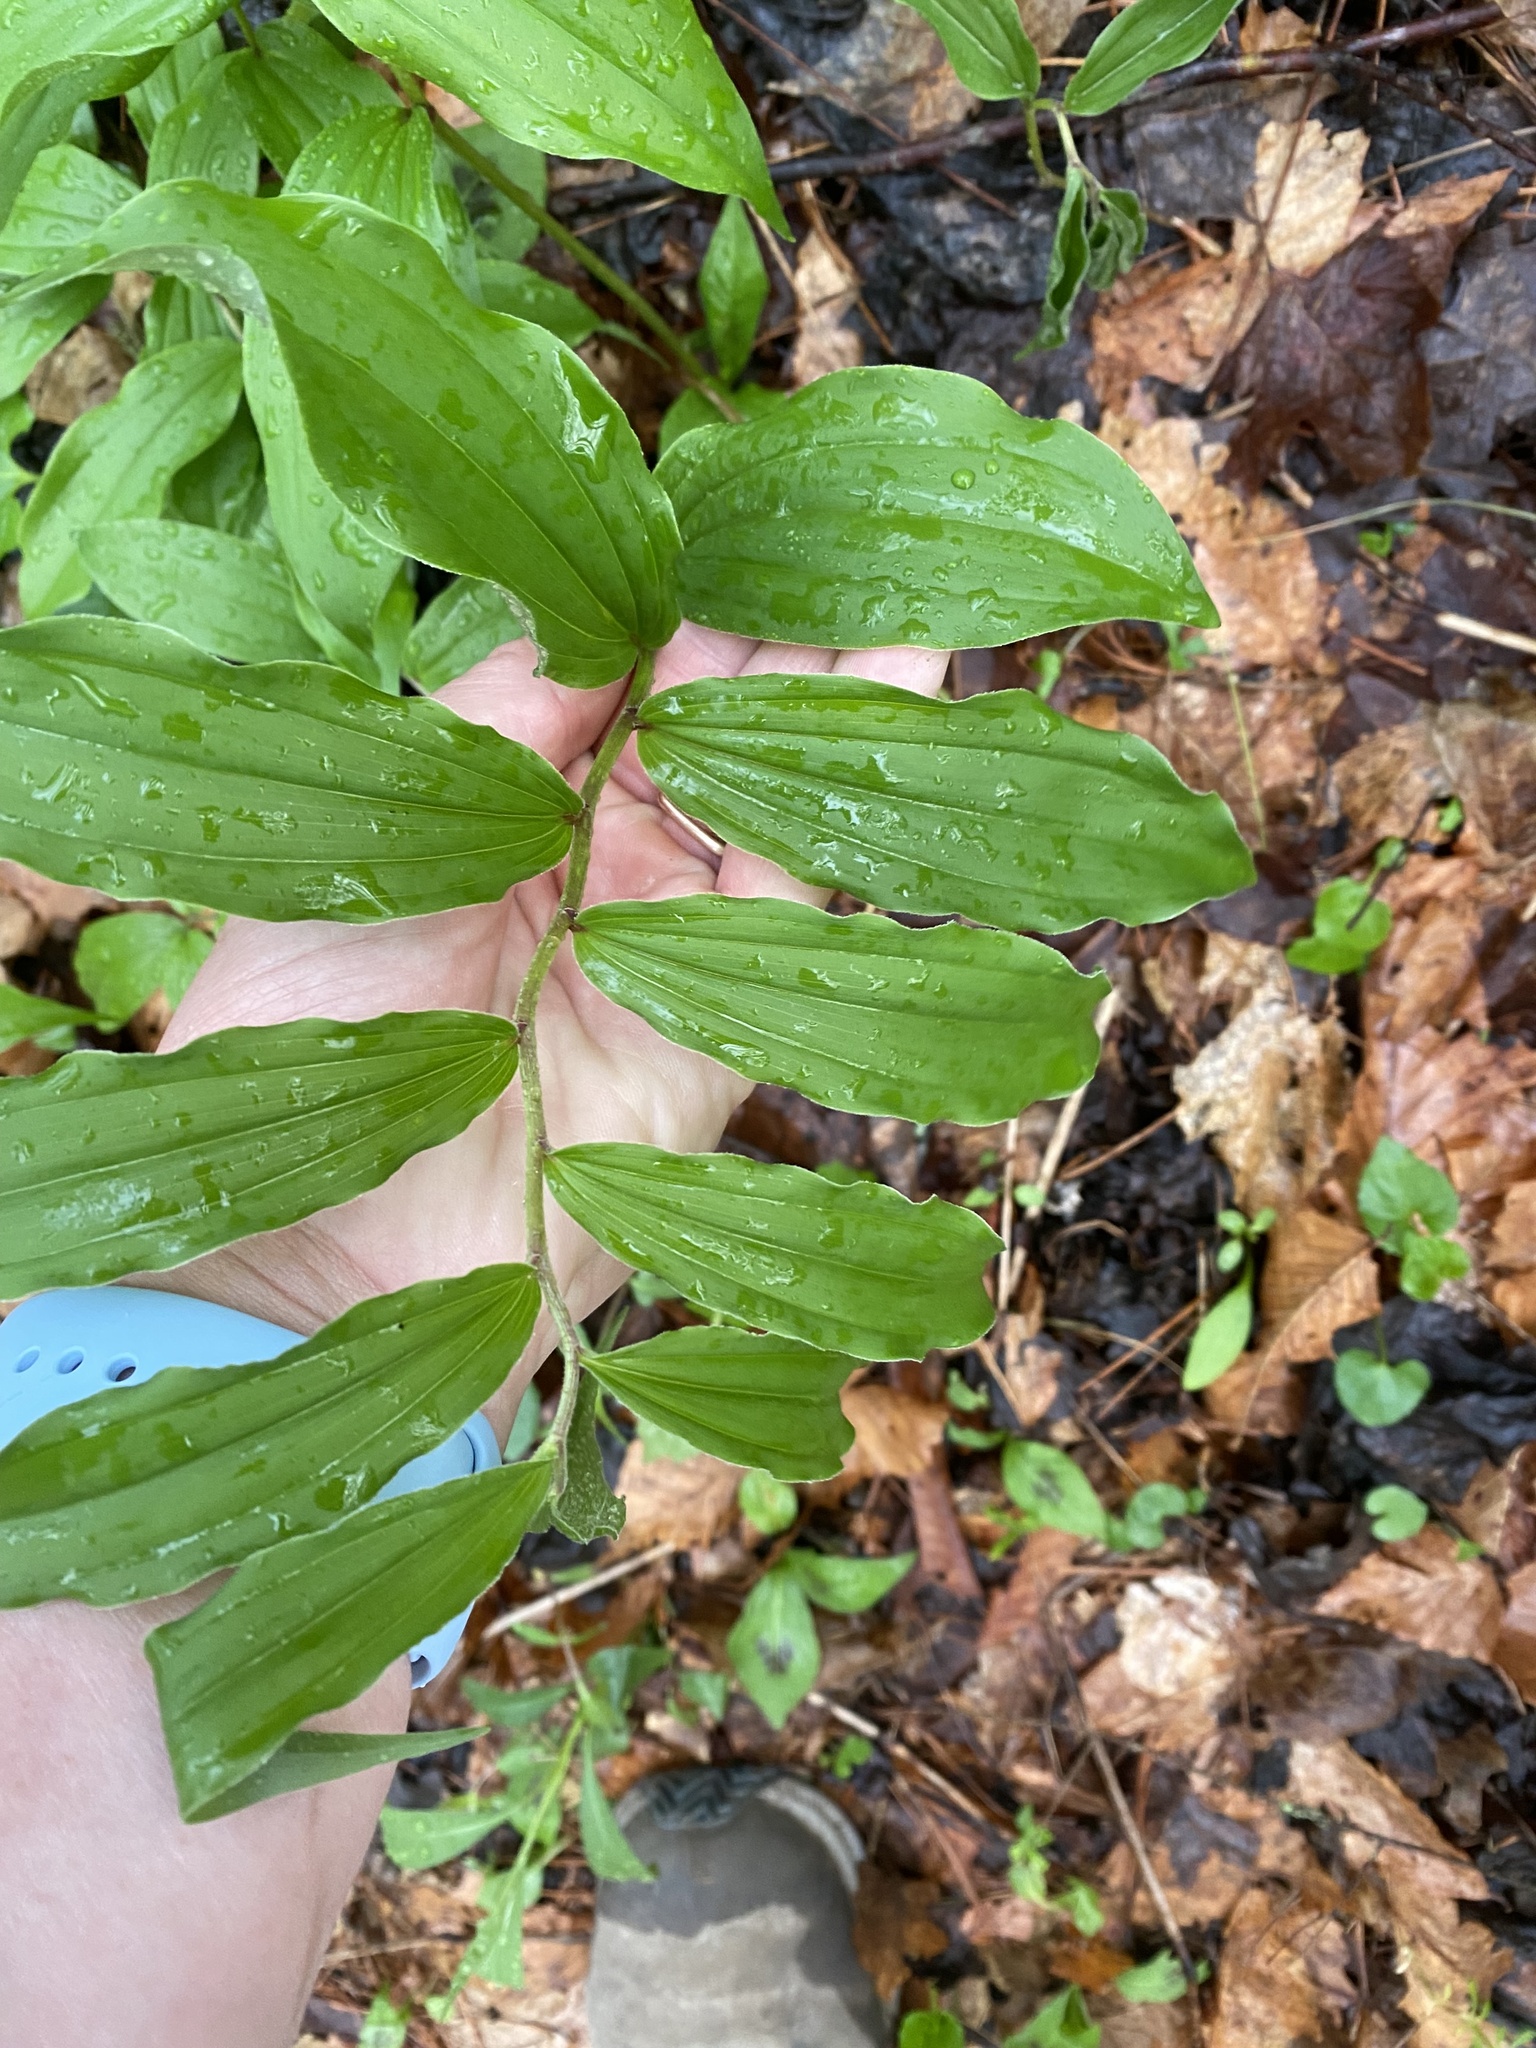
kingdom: Plantae
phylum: Tracheophyta
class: Liliopsida
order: Asparagales
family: Asparagaceae
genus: Maianthemum
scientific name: Maianthemum racemosum
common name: False spikenard
